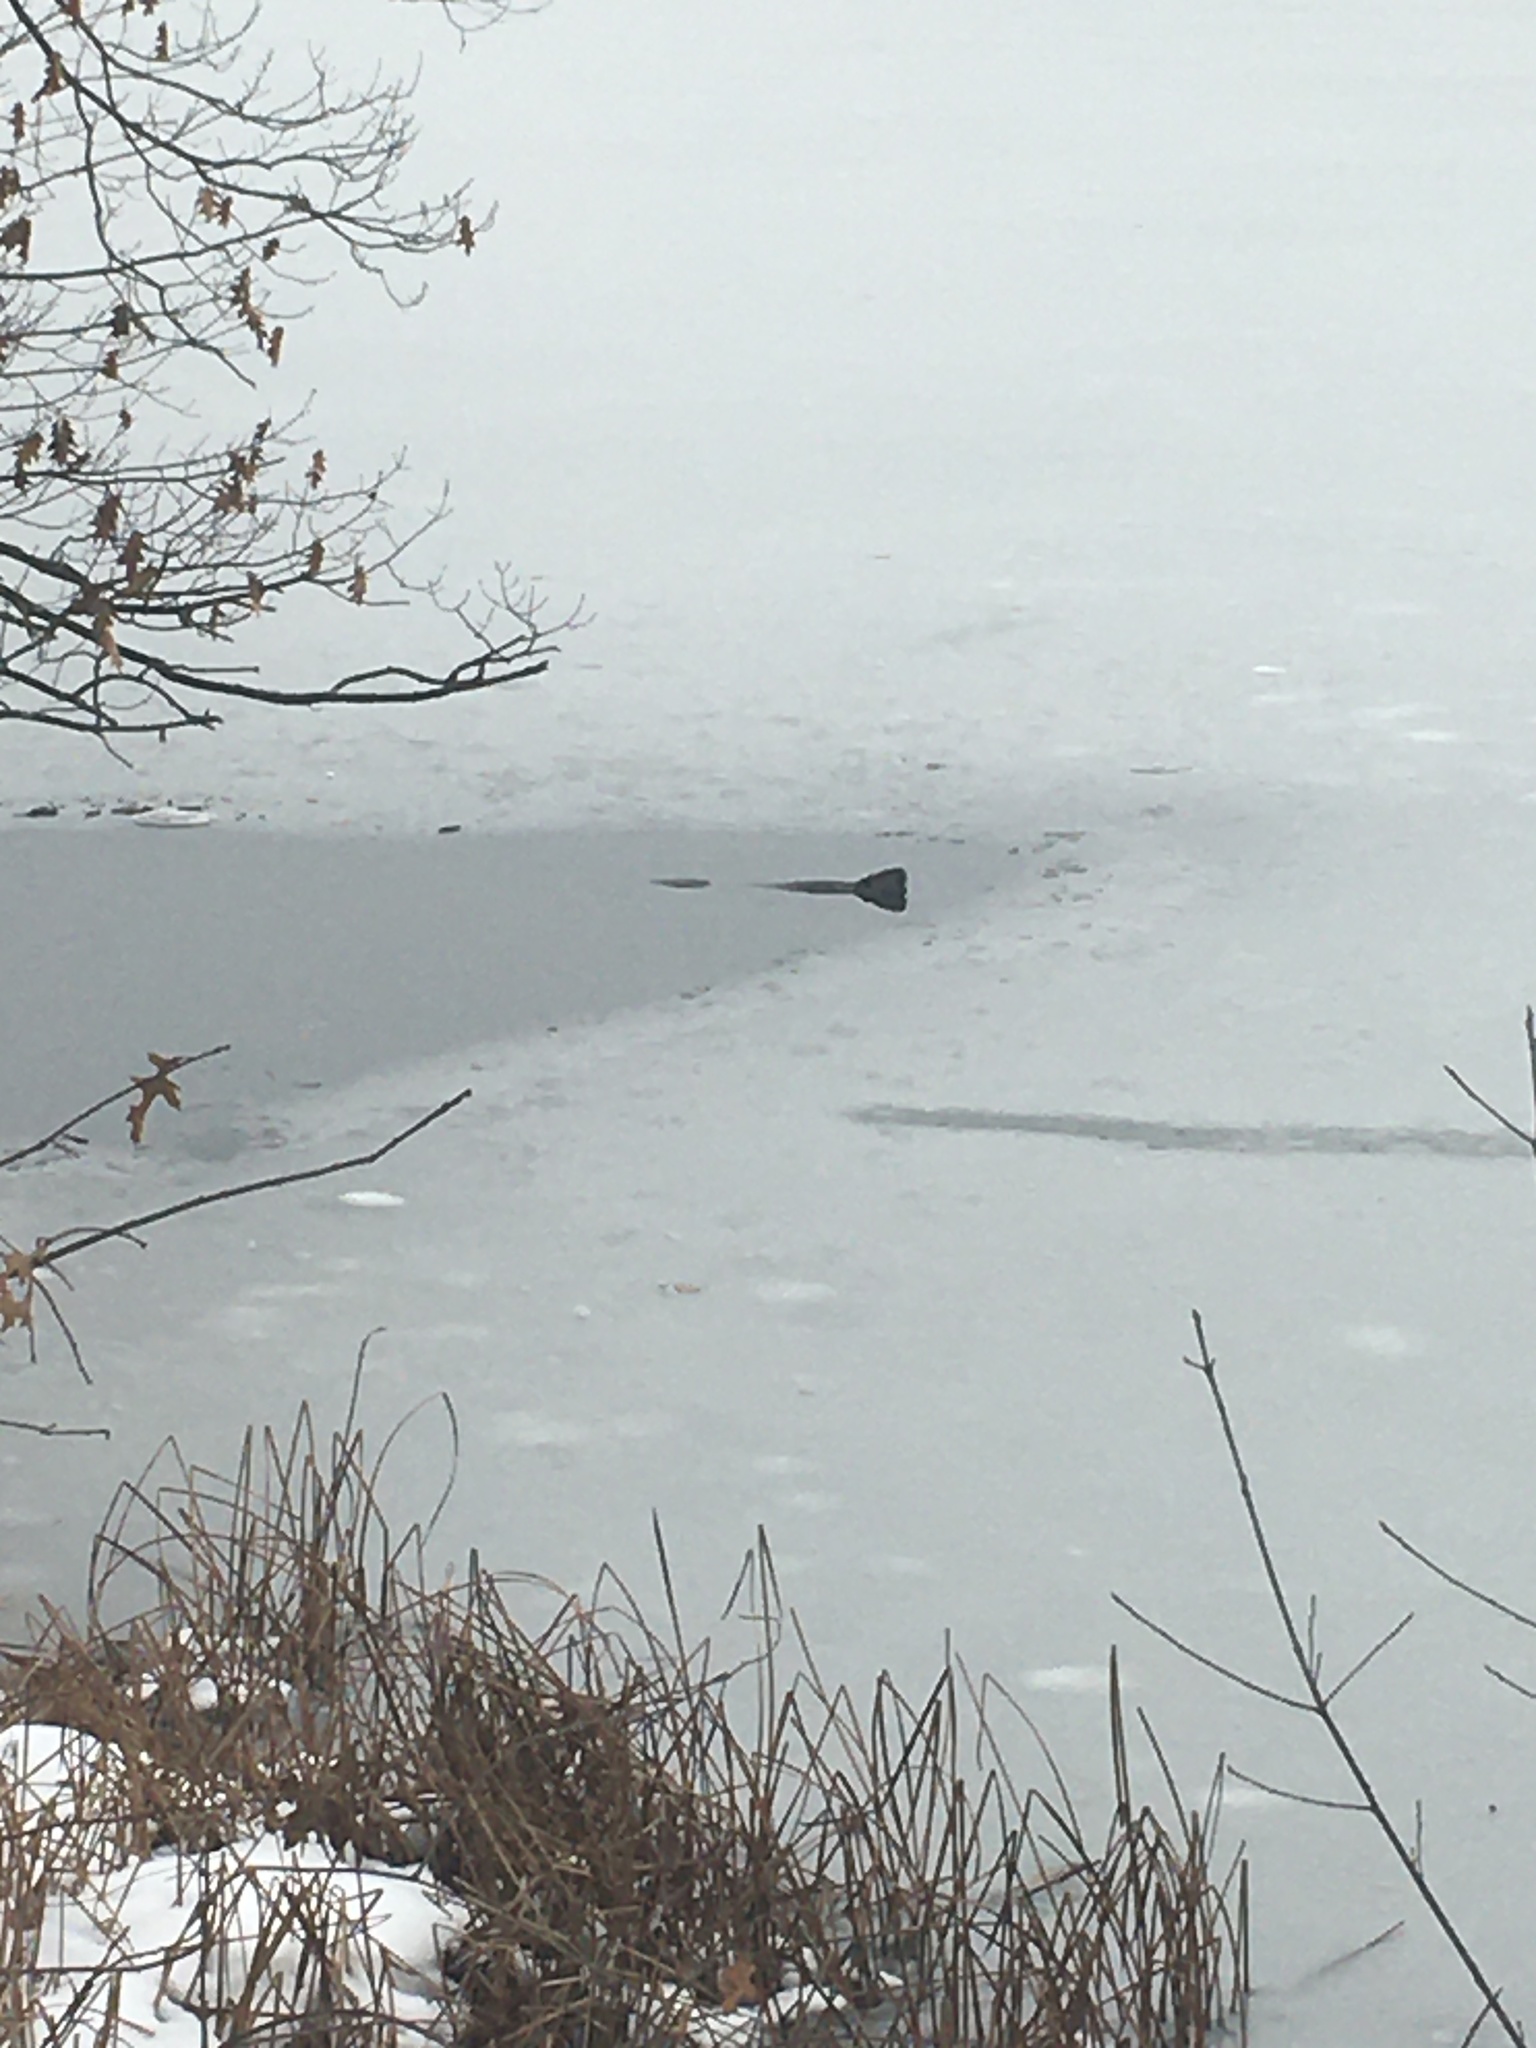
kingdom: Animalia
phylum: Chordata
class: Mammalia
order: Rodentia
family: Castoridae
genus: Castor
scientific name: Castor canadensis
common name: American beaver
